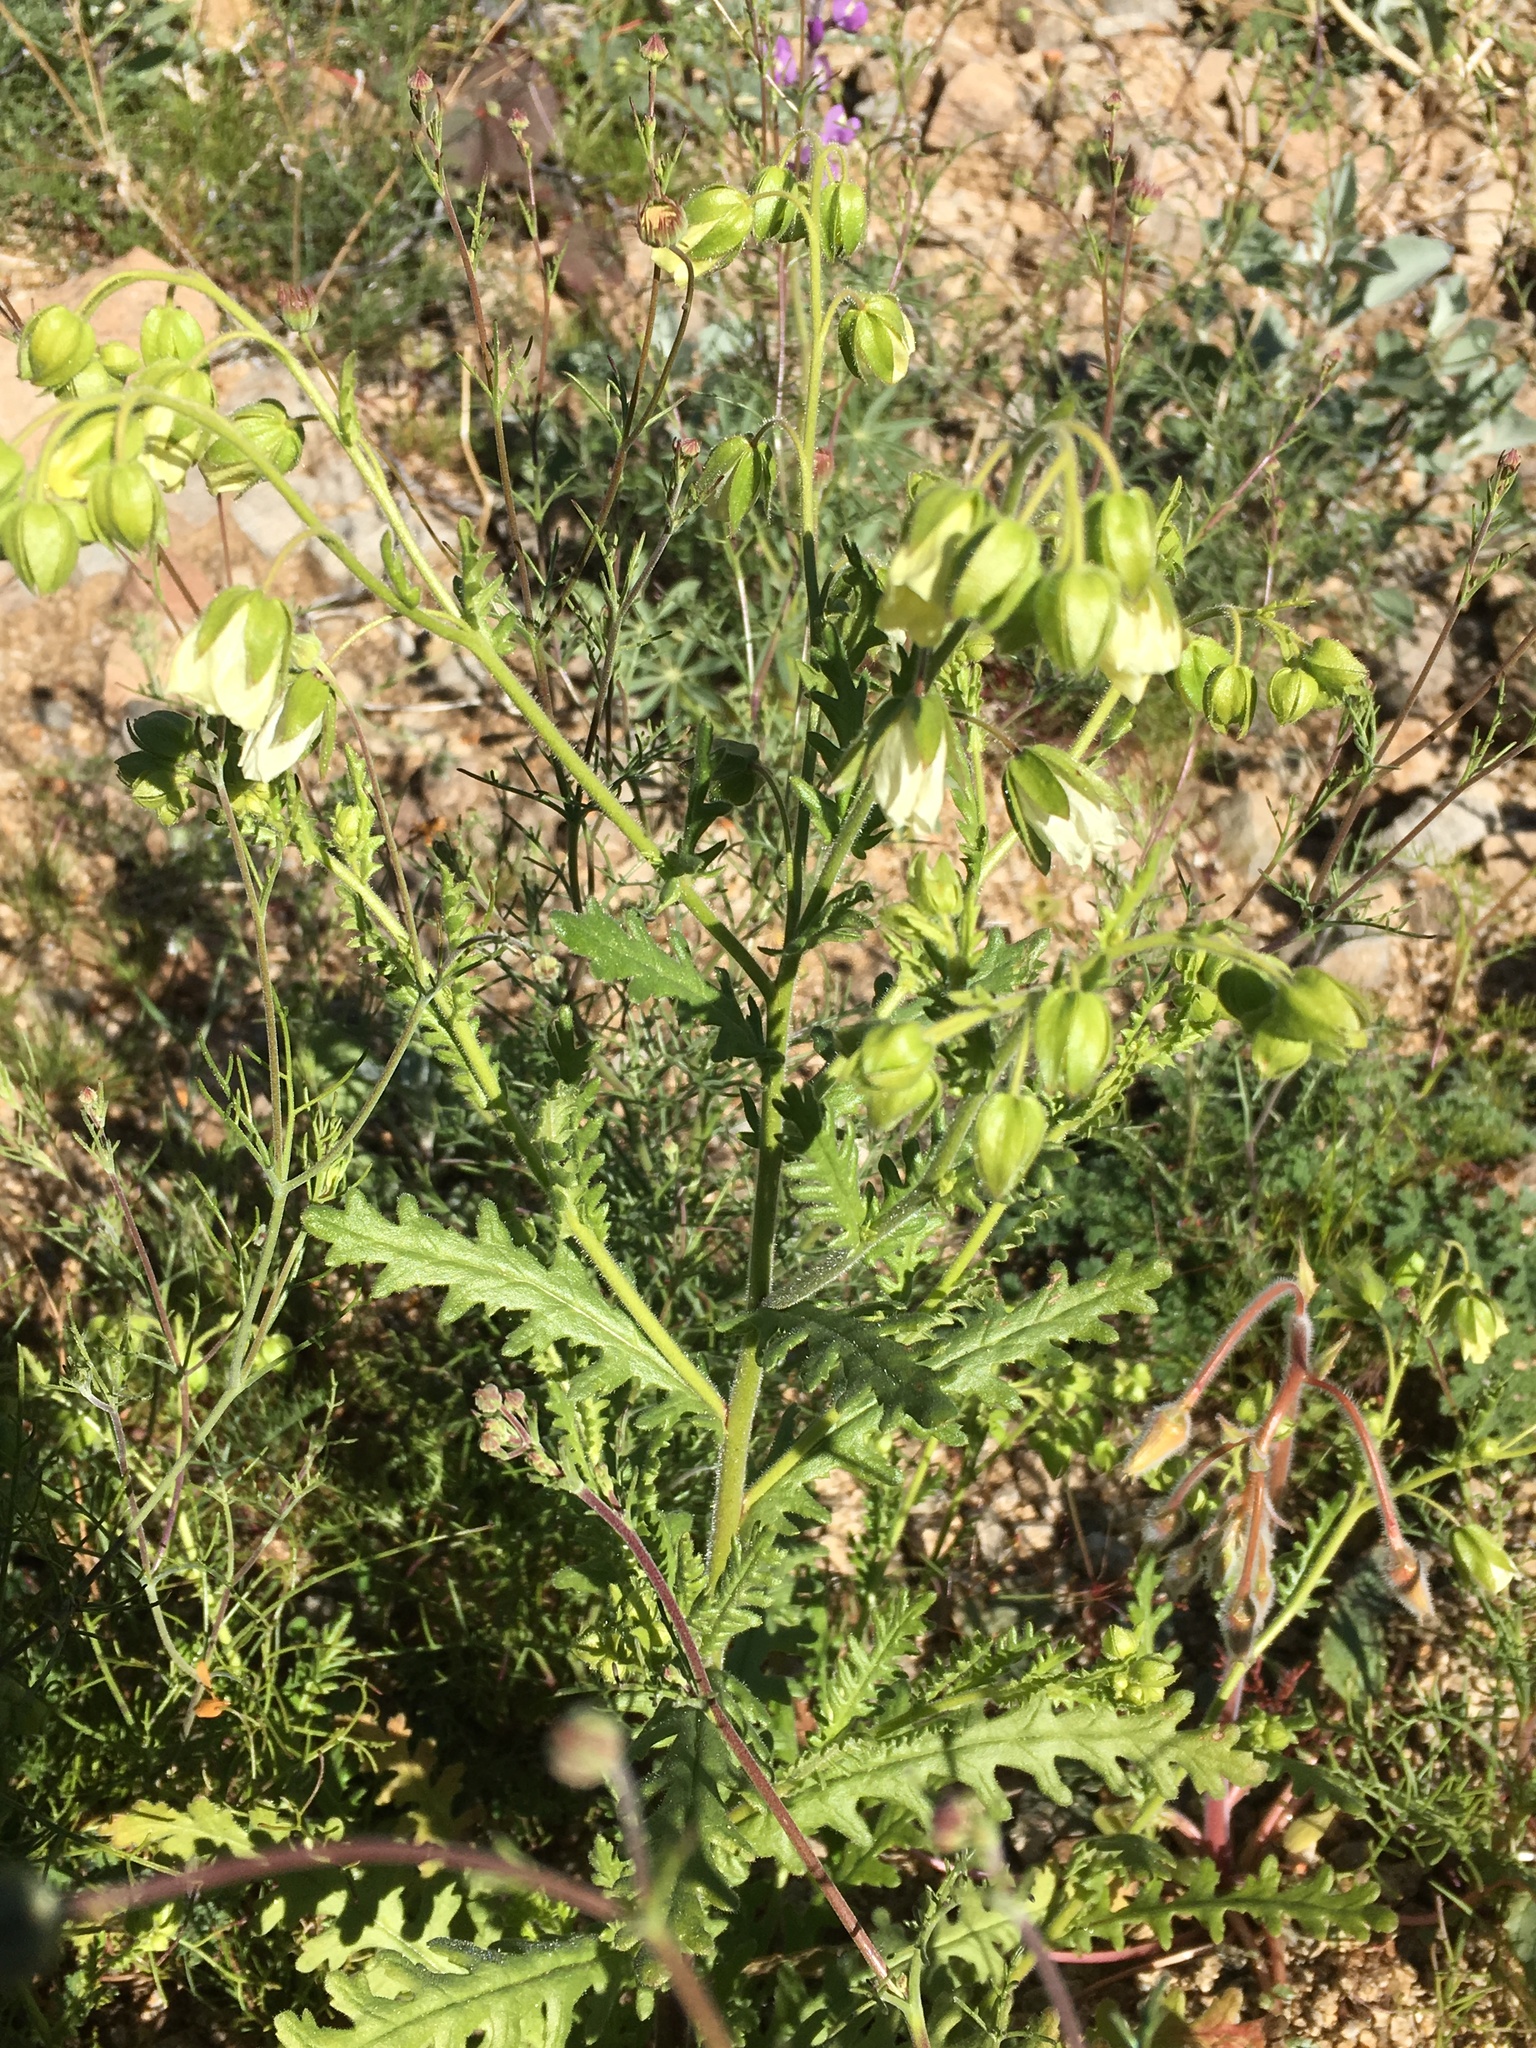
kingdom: Plantae
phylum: Tracheophyta
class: Magnoliopsida
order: Boraginales
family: Hydrophyllaceae
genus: Emmenanthe
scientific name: Emmenanthe penduliflora
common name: Whispering-bells
